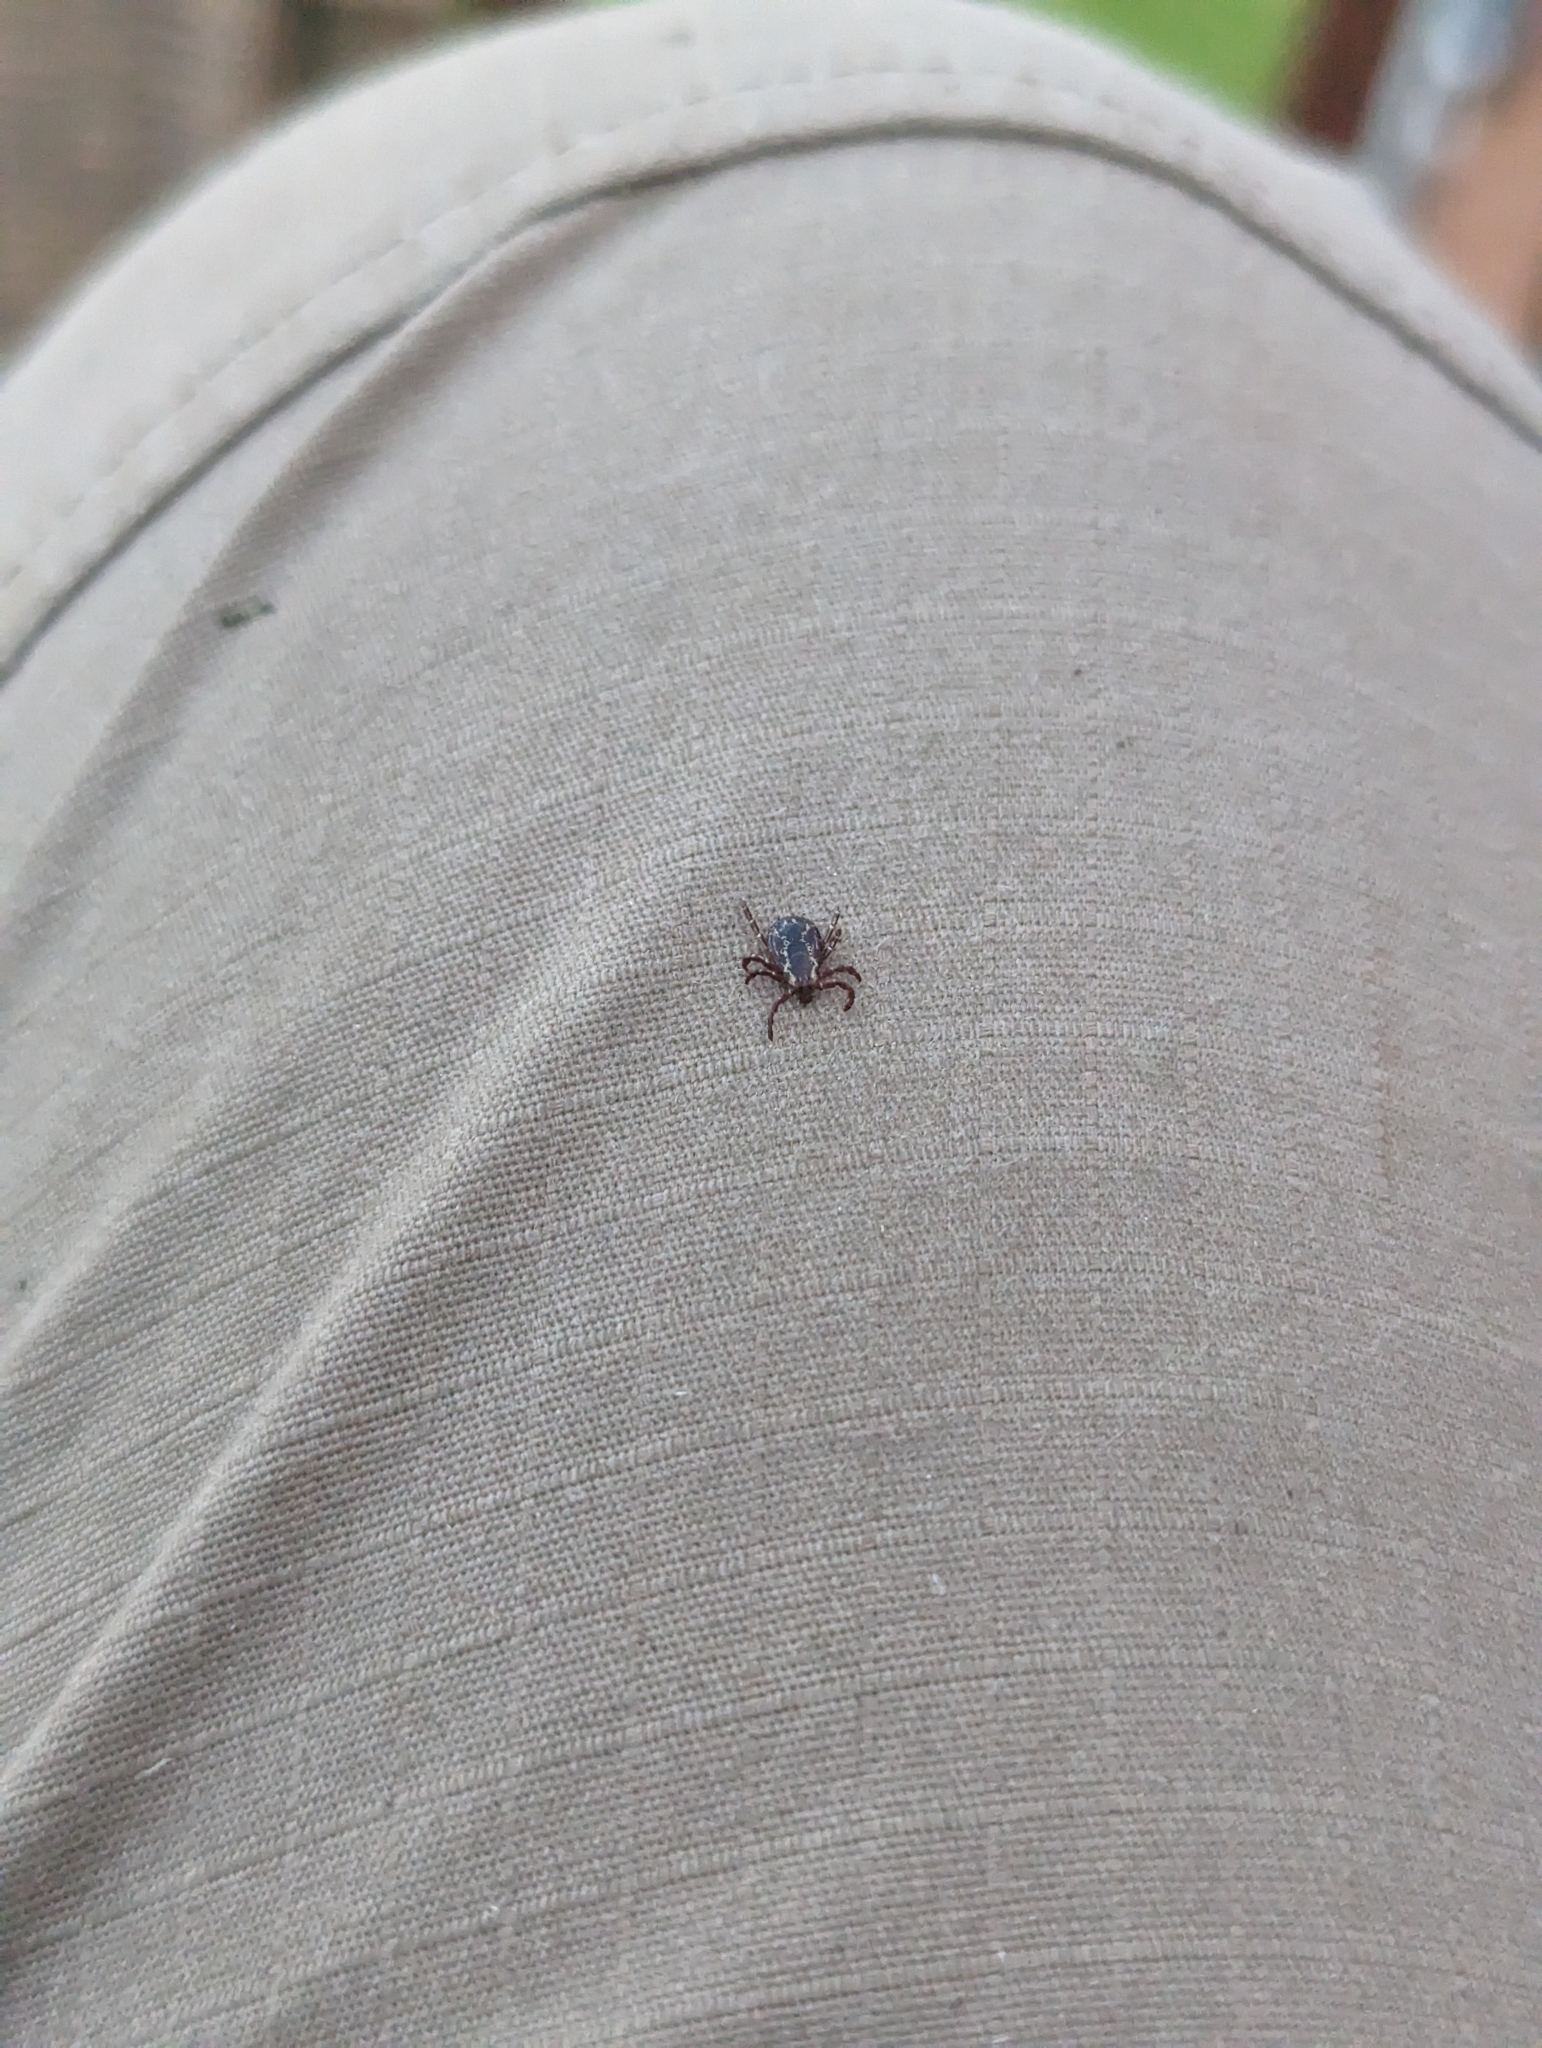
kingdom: Animalia
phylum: Arthropoda
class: Arachnida
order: Ixodida
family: Ixodidae
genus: Dermacentor
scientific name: Dermacentor variabilis
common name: American dog tick
